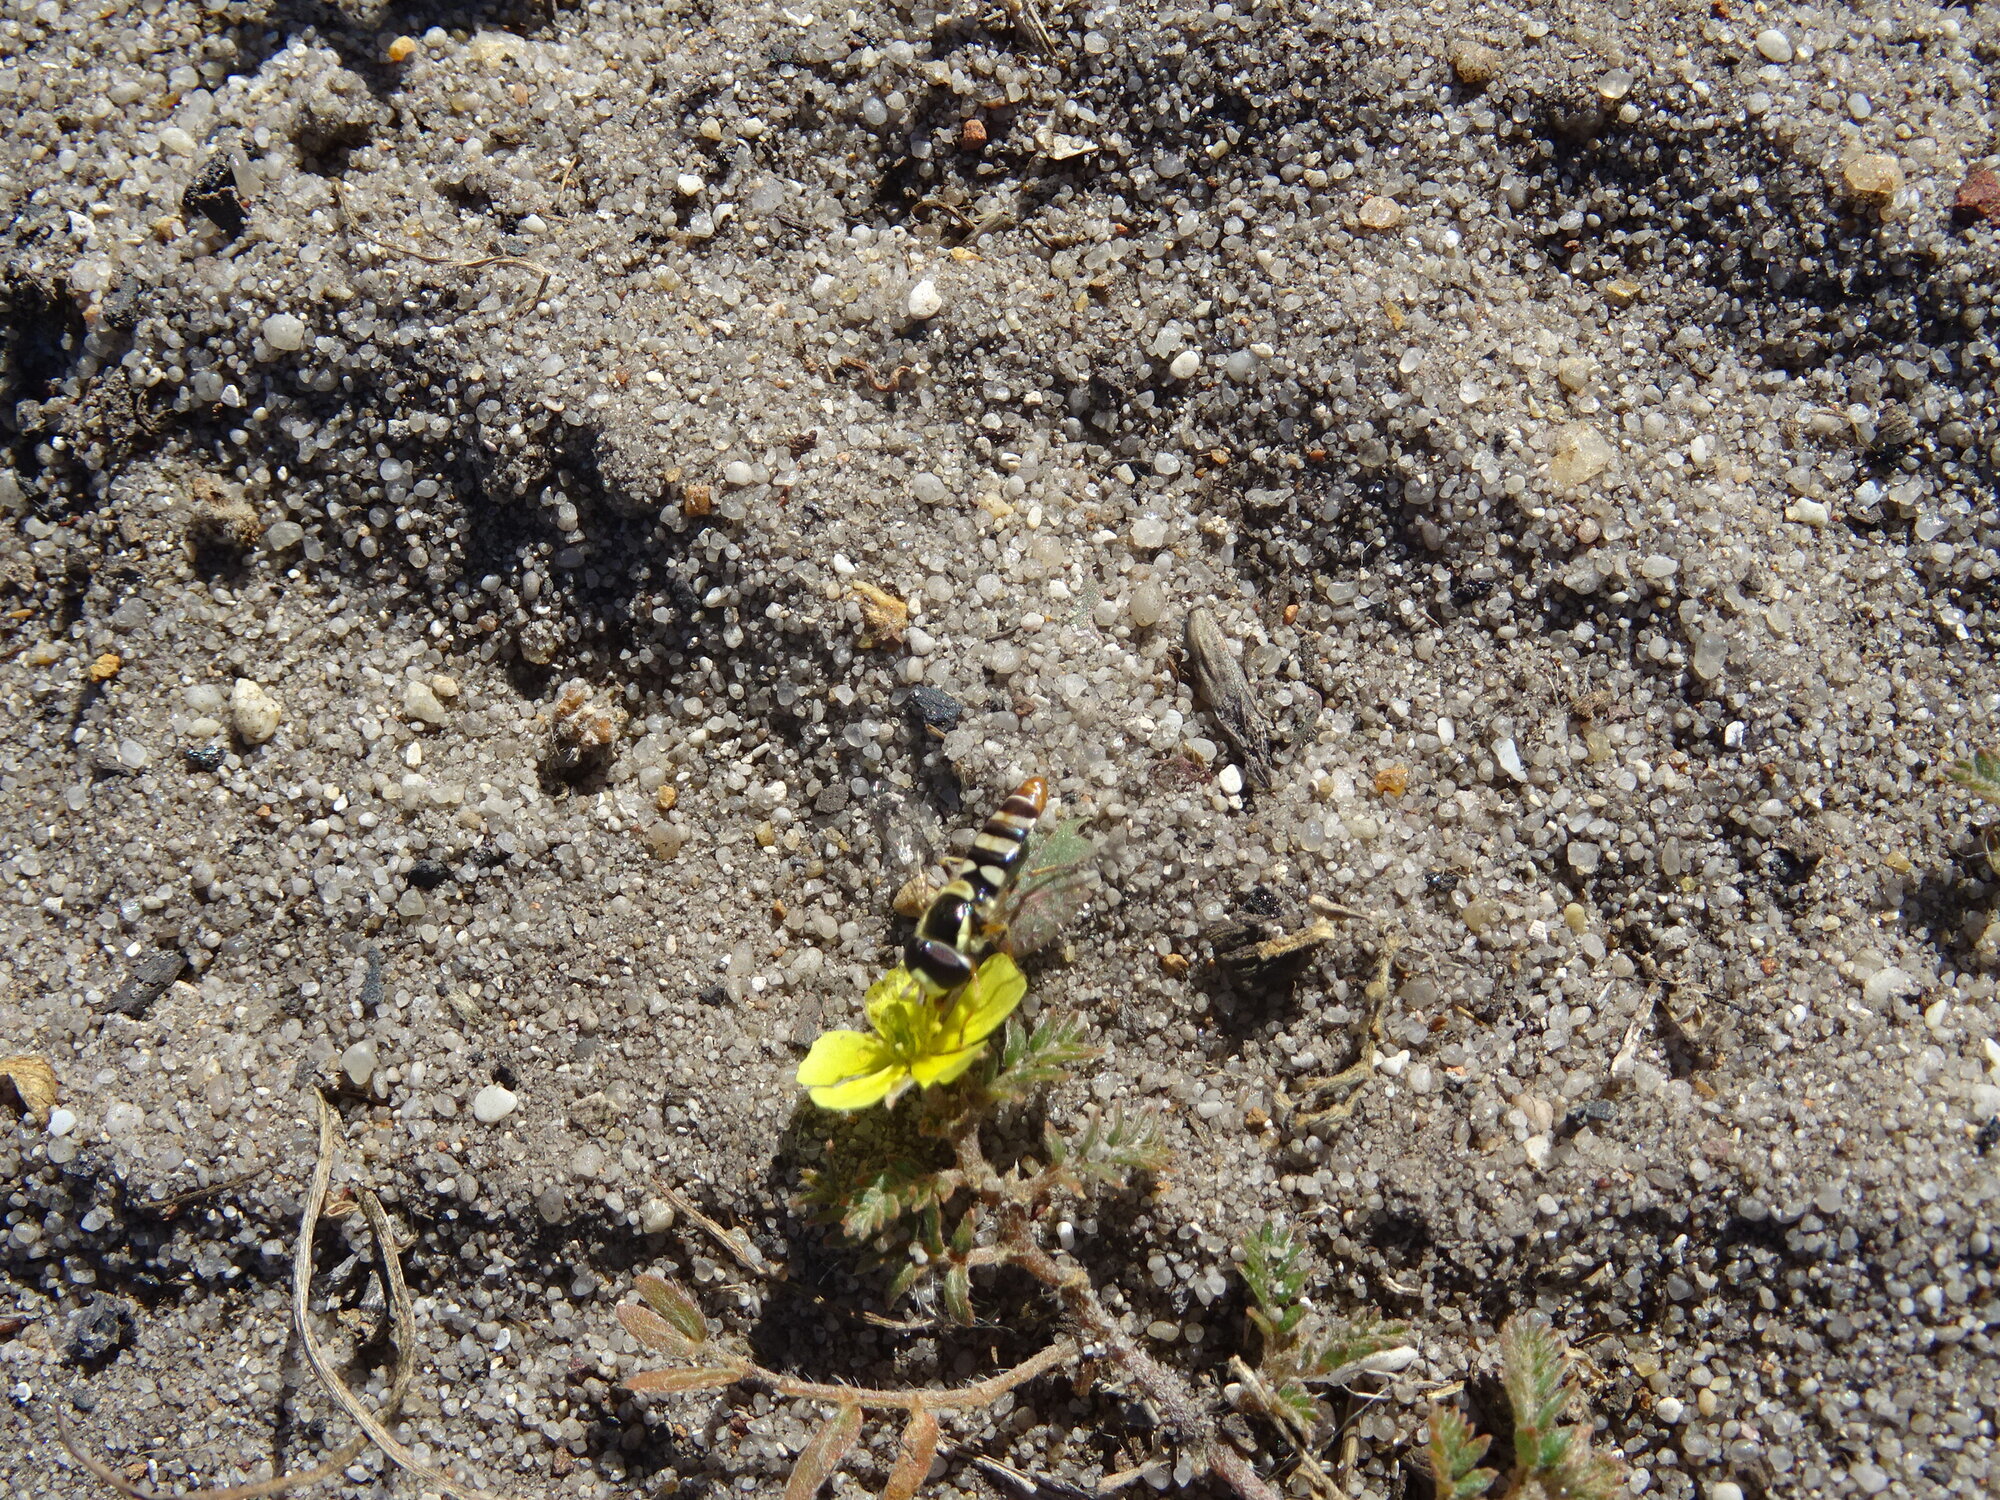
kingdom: Animalia
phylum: Arthropoda
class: Insecta
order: Diptera
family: Syrphidae
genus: Ischiodon
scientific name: Ischiodon aegyptius
